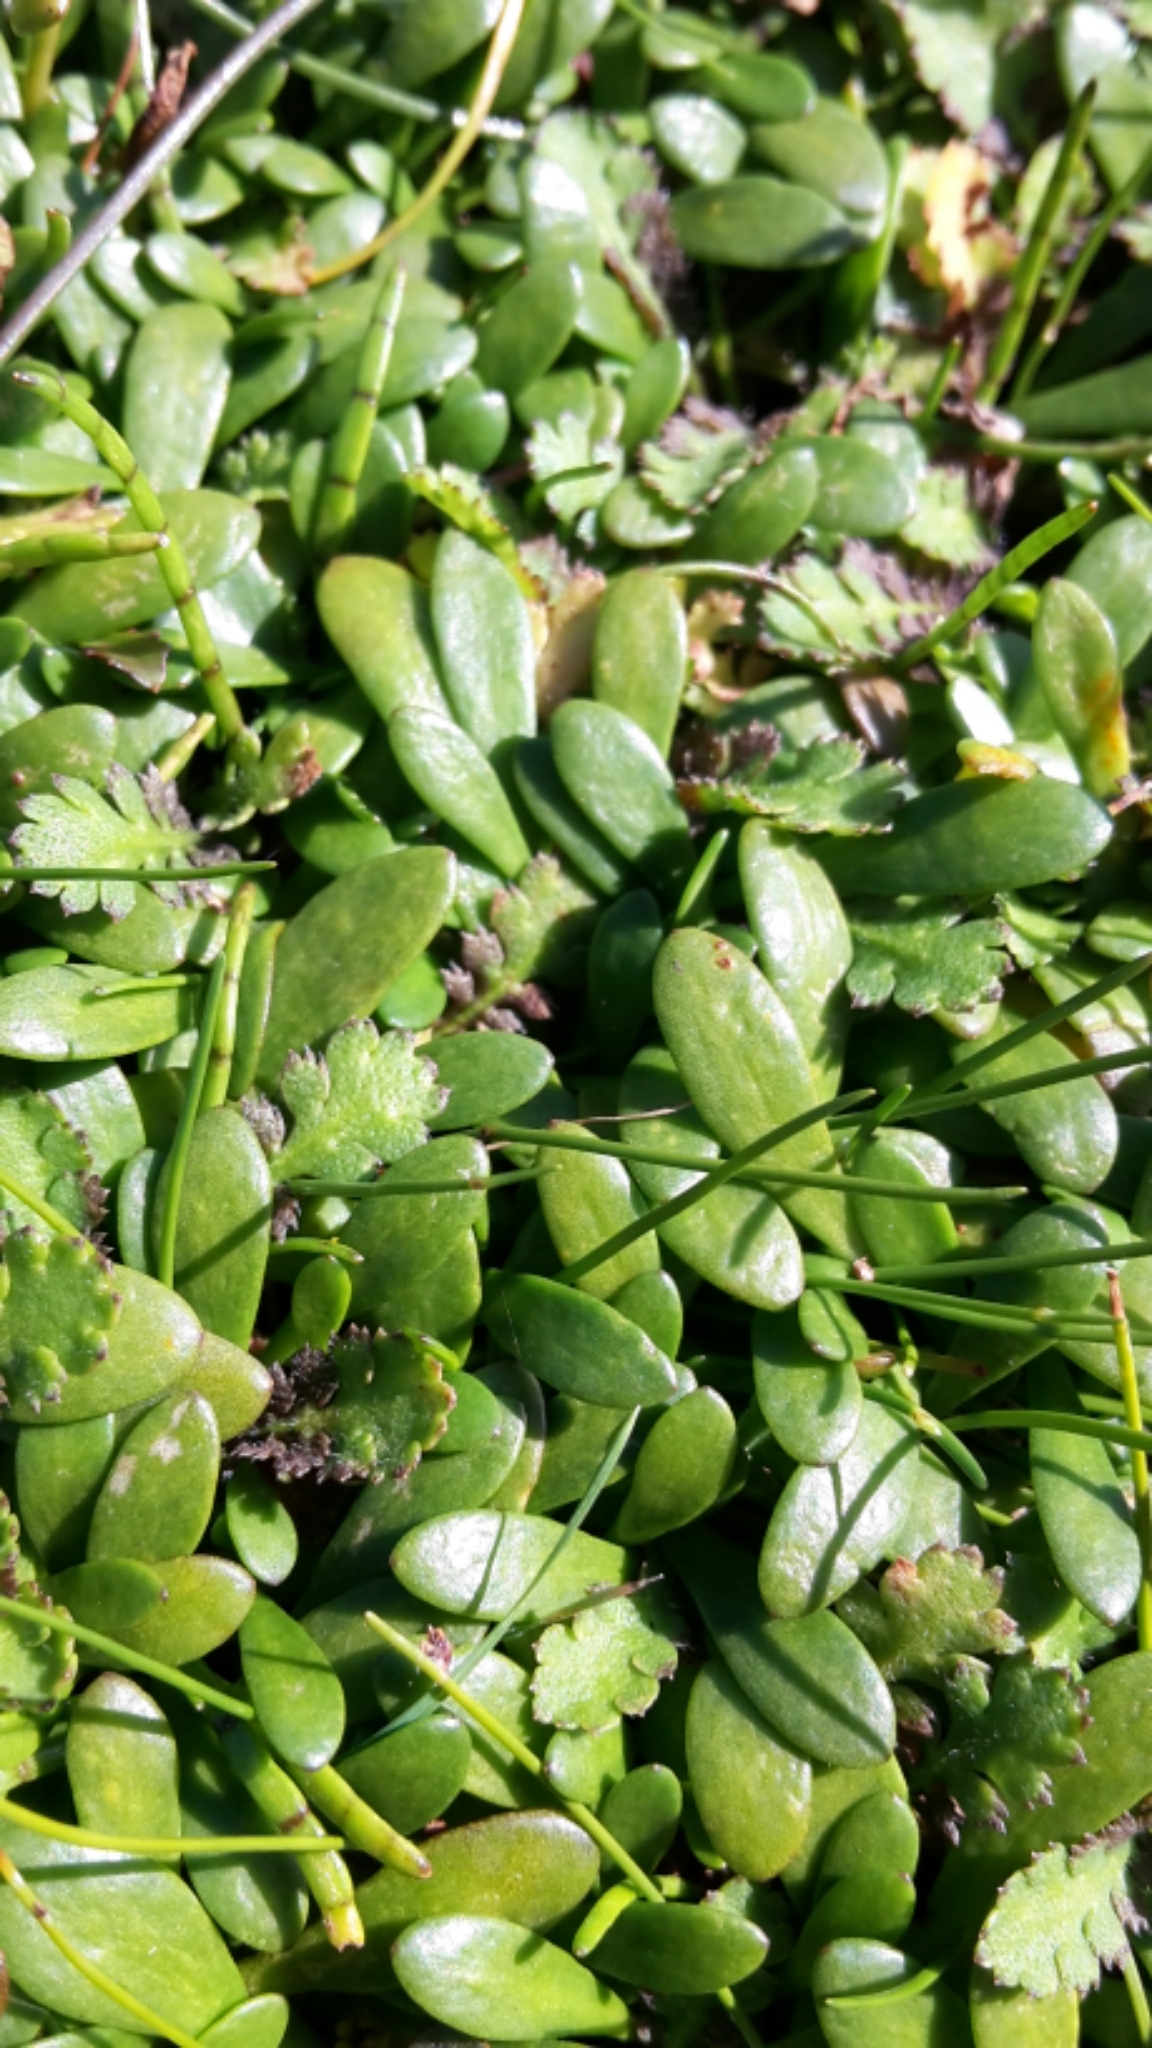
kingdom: Plantae
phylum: Tracheophyta
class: Magnoliopsida
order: Asterales
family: Goodeniaceae
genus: Goodenia
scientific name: Goodenia radicans
